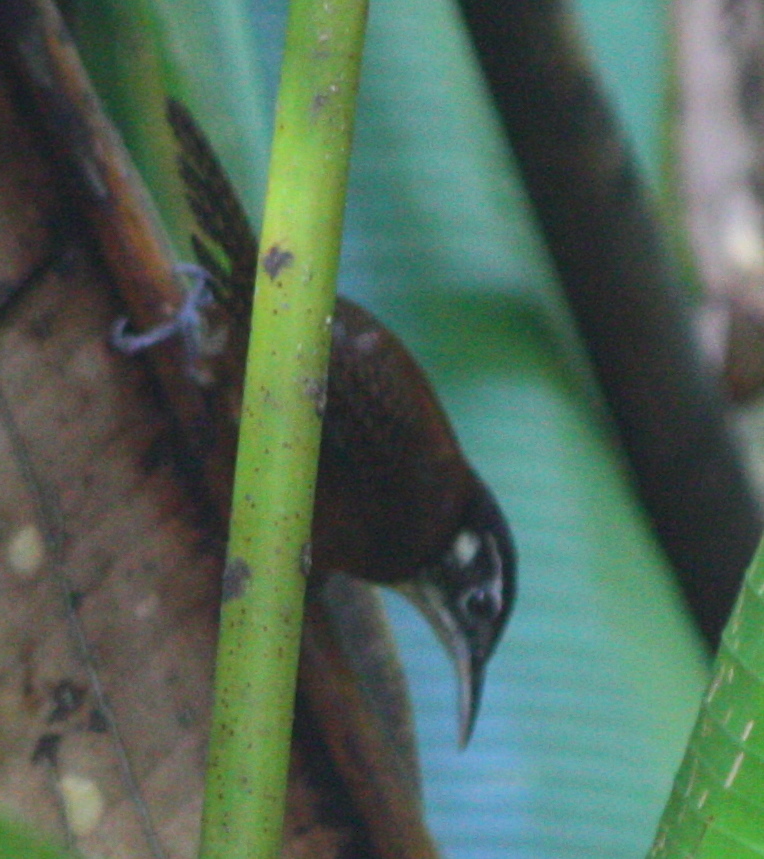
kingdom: Animalia
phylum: Chordata
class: Aves
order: Passeriformes
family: Troglodytidae
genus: Cantorchilus
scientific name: Cantorchilus nigricapillus
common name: Bay wren
